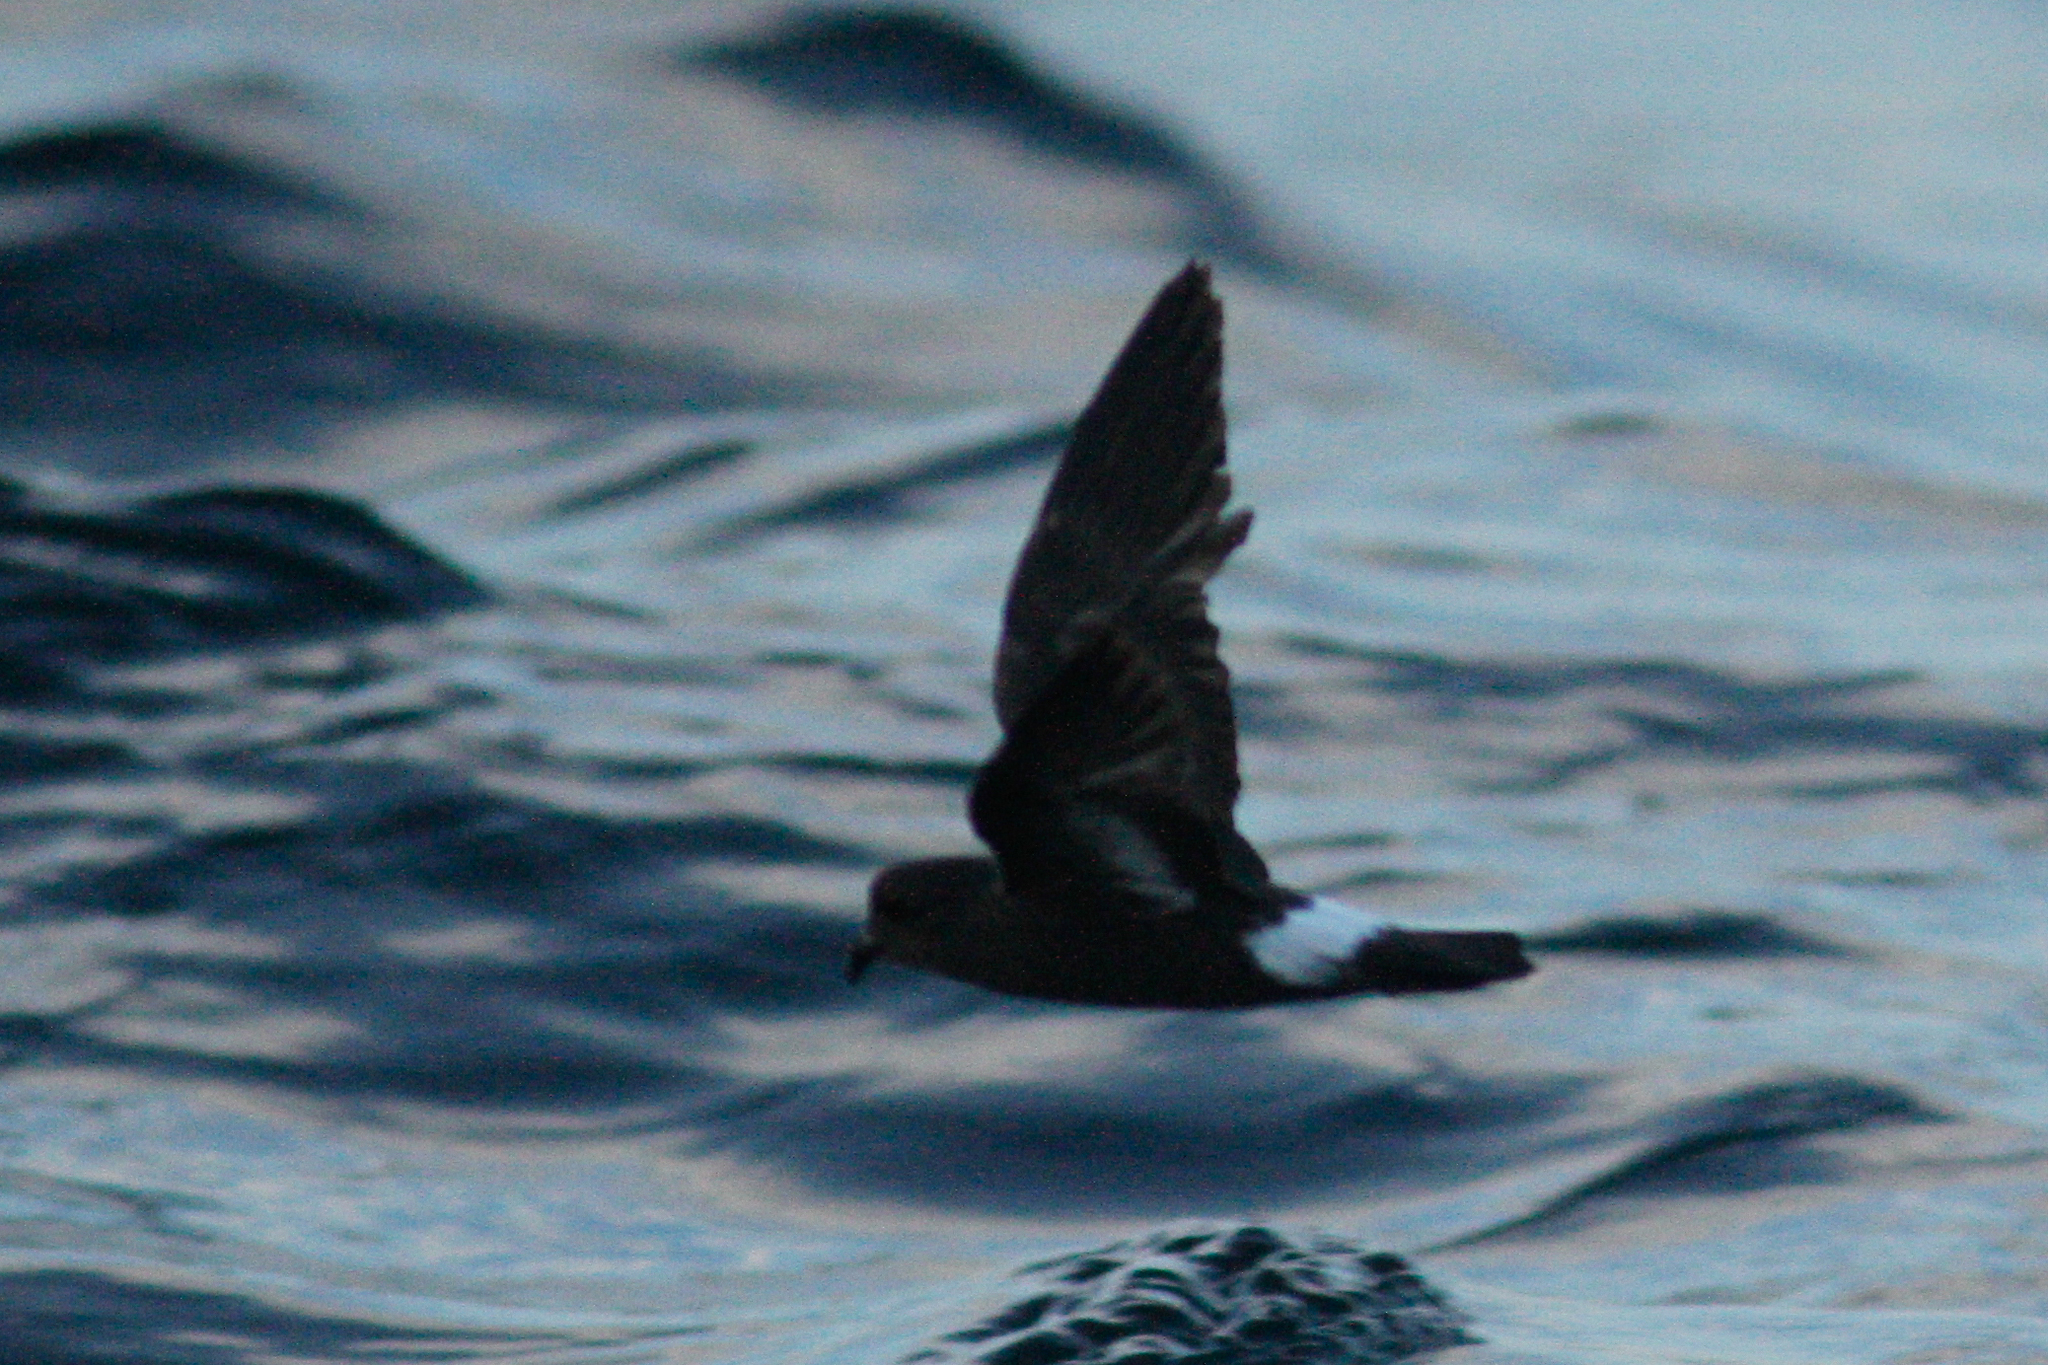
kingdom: Animalia
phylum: Chordata
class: Aves
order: Procellariiformes
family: Hydrobatidae
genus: Hydrobates
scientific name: Hydrobates pelagicus
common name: European storm-petrel
